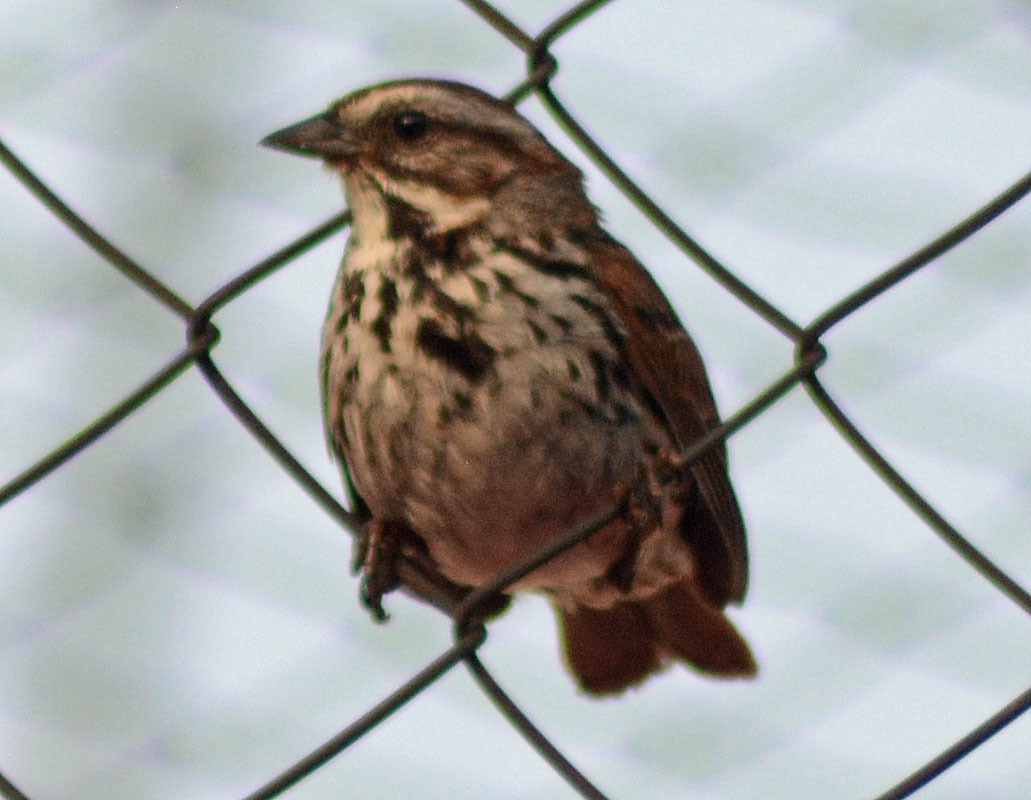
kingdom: Animalia
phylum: Chordata
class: Aves
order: Passeriformes
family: Passerellidae
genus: Melospiza
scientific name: Melospiza melodia
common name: Song sparrow
